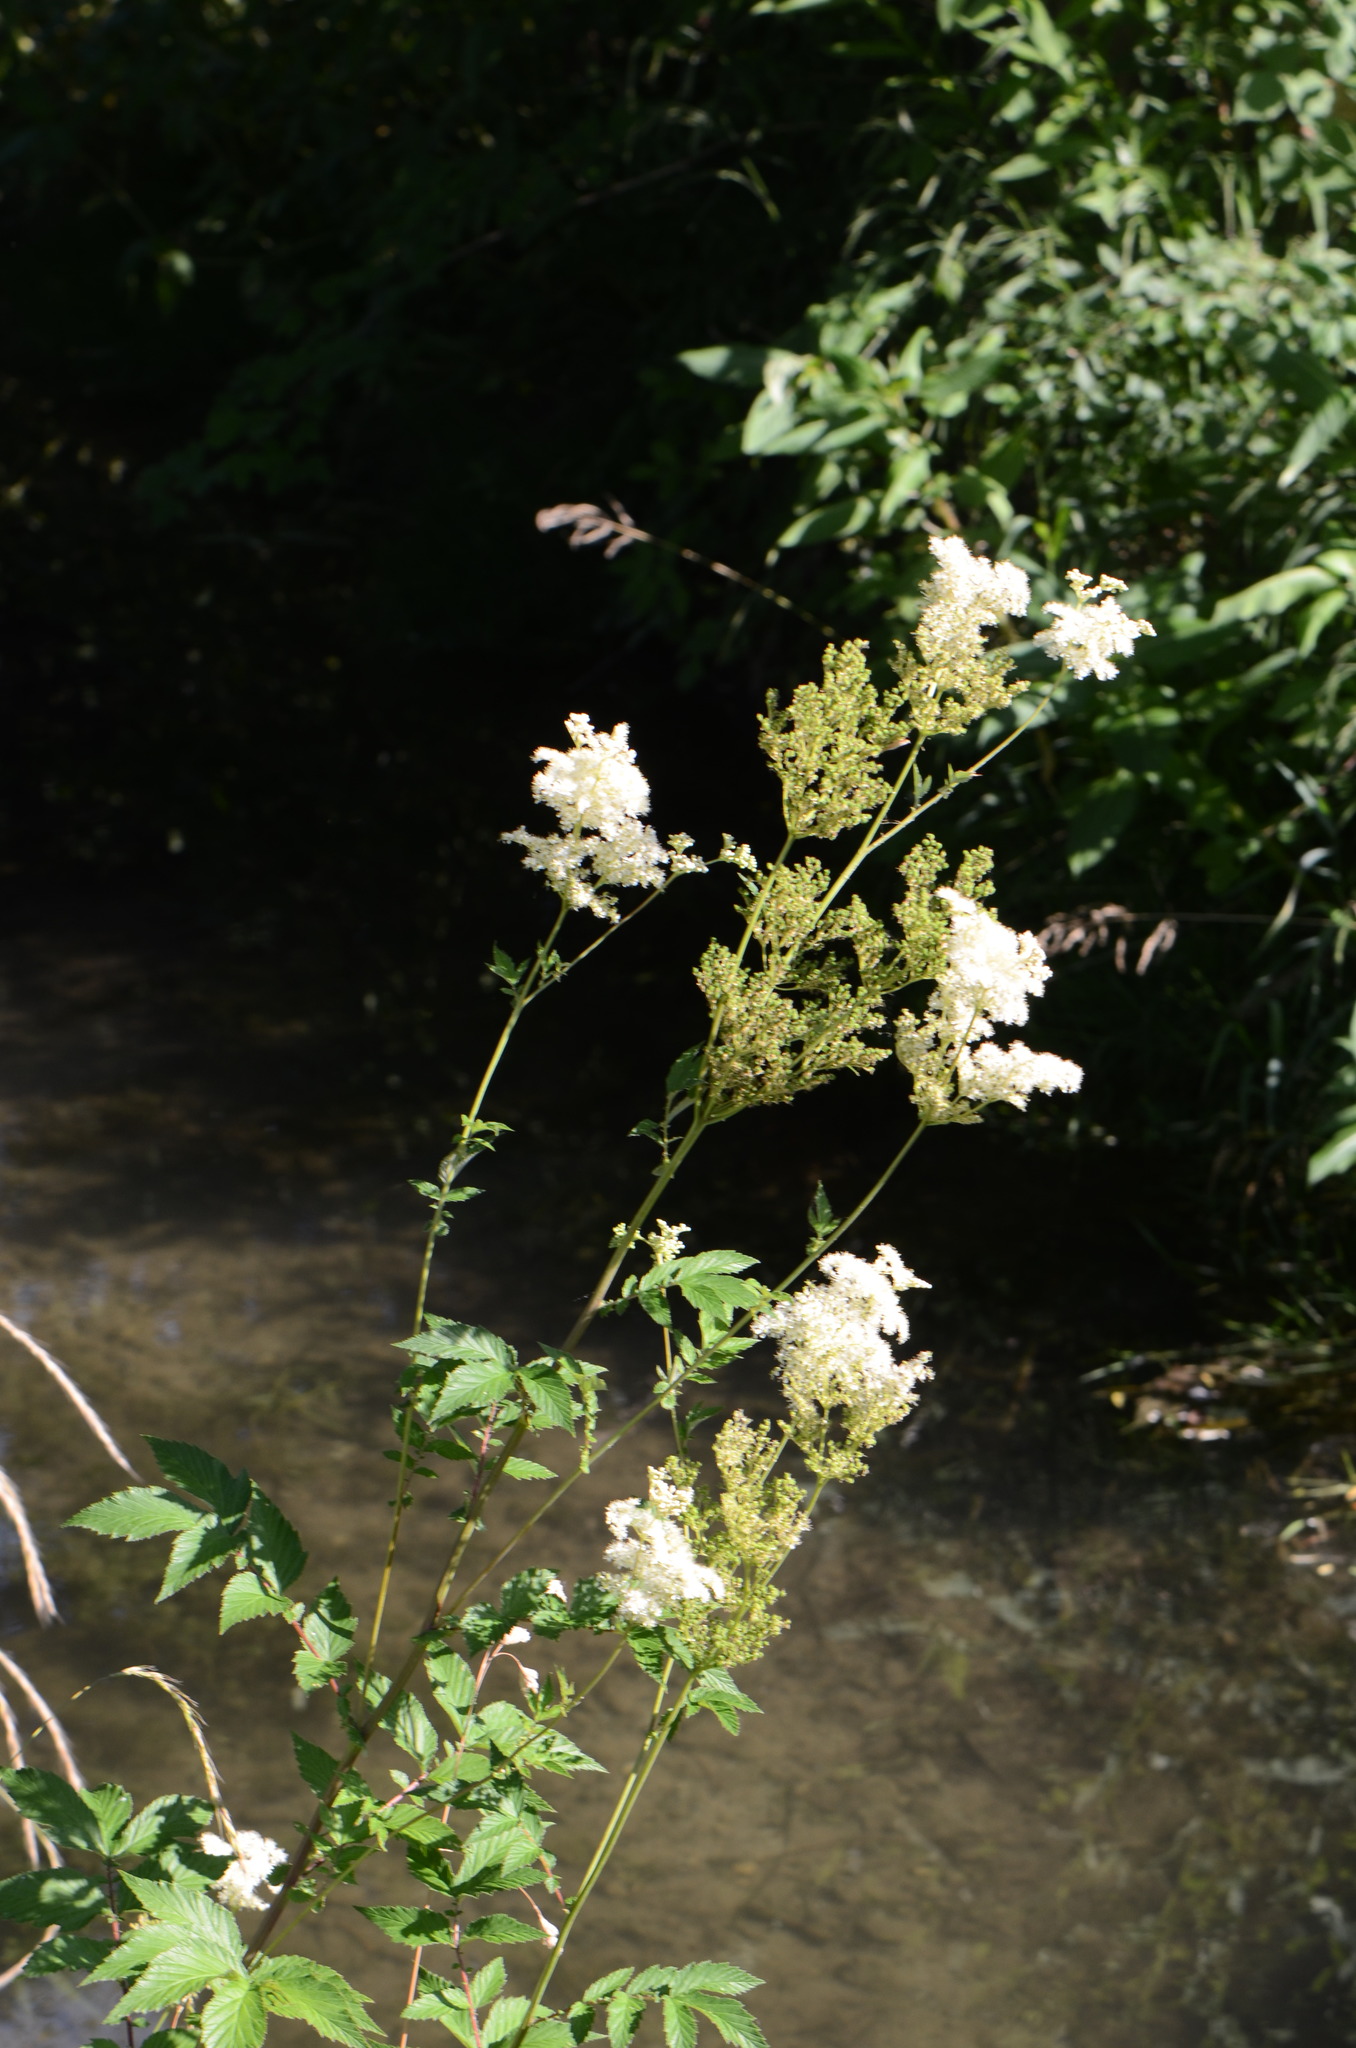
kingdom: Plantae
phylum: Tracheophyta
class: Magnoliopsida
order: Rosales
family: Rosaceae
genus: Filipendula
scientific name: Filipendula ulmaria
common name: Meadowsweet
